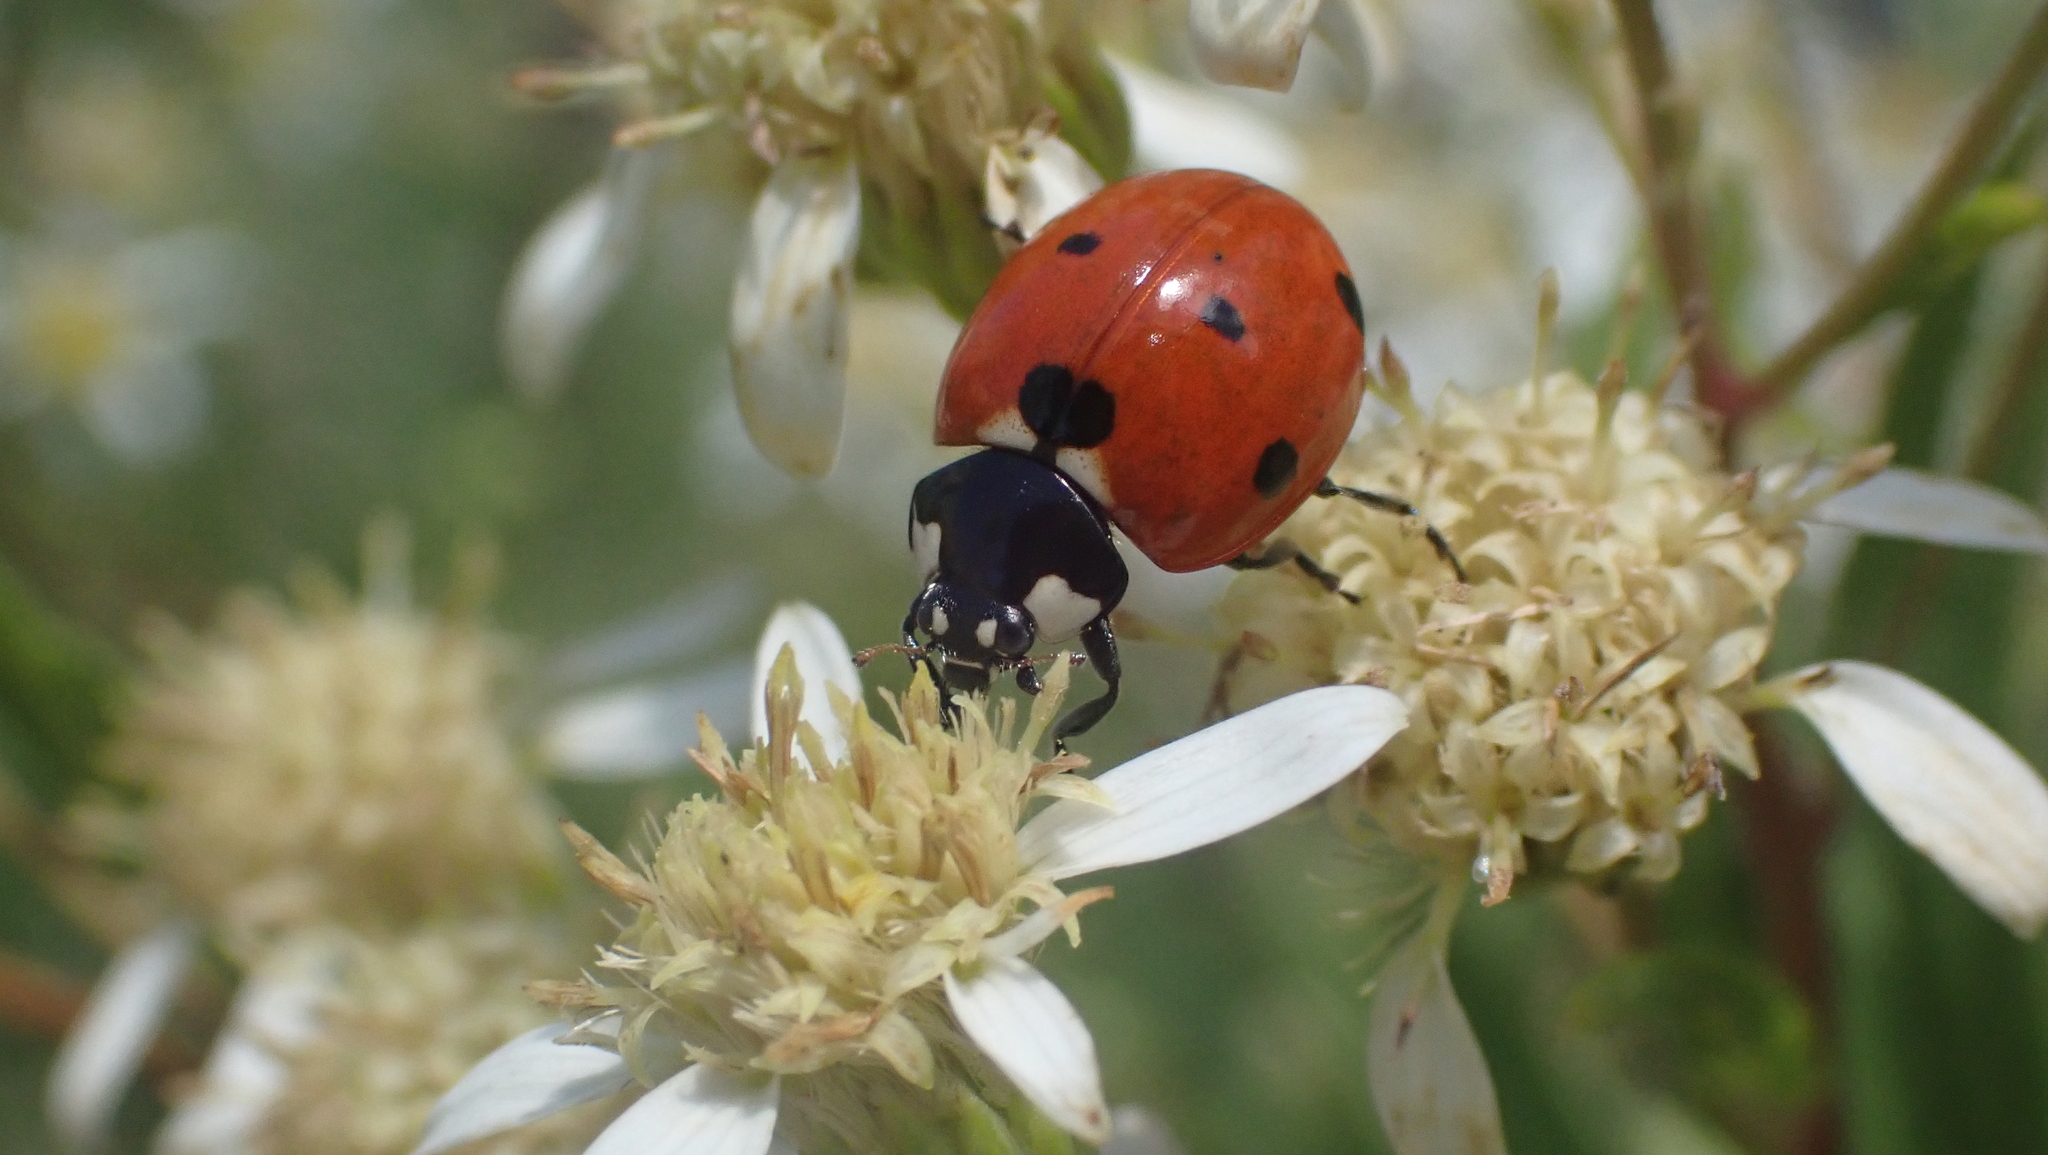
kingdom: Animalia
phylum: Arthropoda
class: Insecta
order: Coleoptera
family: Coccinellidae
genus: Coccinella
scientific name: Coccinella septempunctata
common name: Sevenspotted lady beetle
